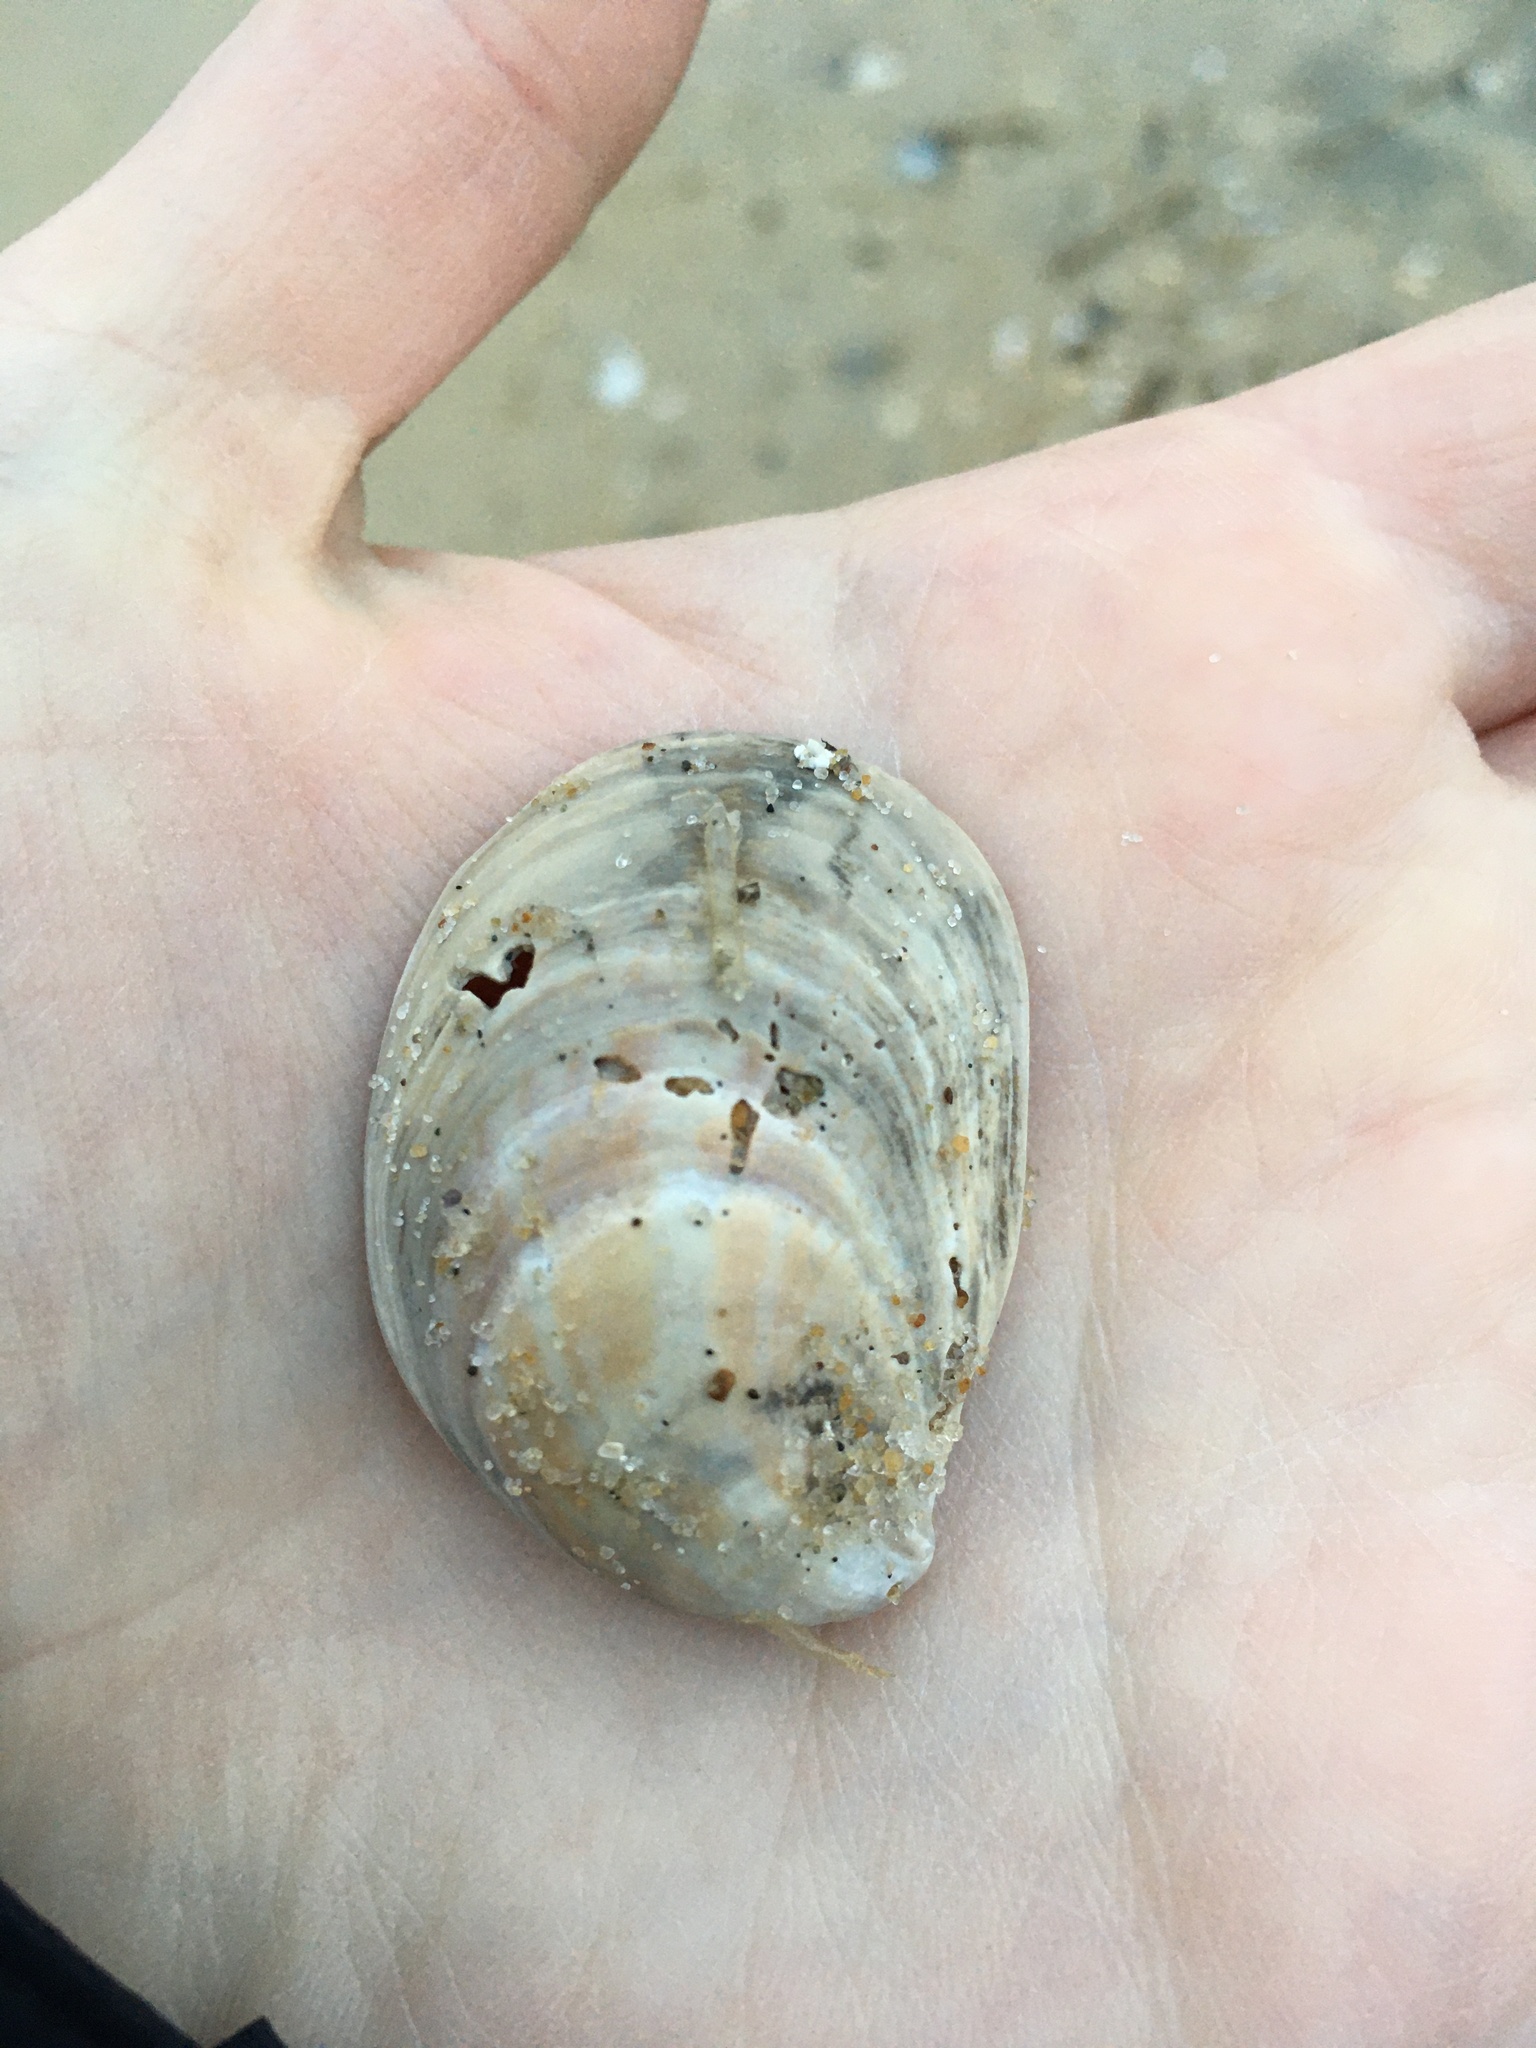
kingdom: Animalia
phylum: Mollusca
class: Gastropoda
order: Littorinimorpha
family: Calyptraeidae
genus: Crepidula
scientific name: Crepidula fornicata
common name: Slipper limpet
